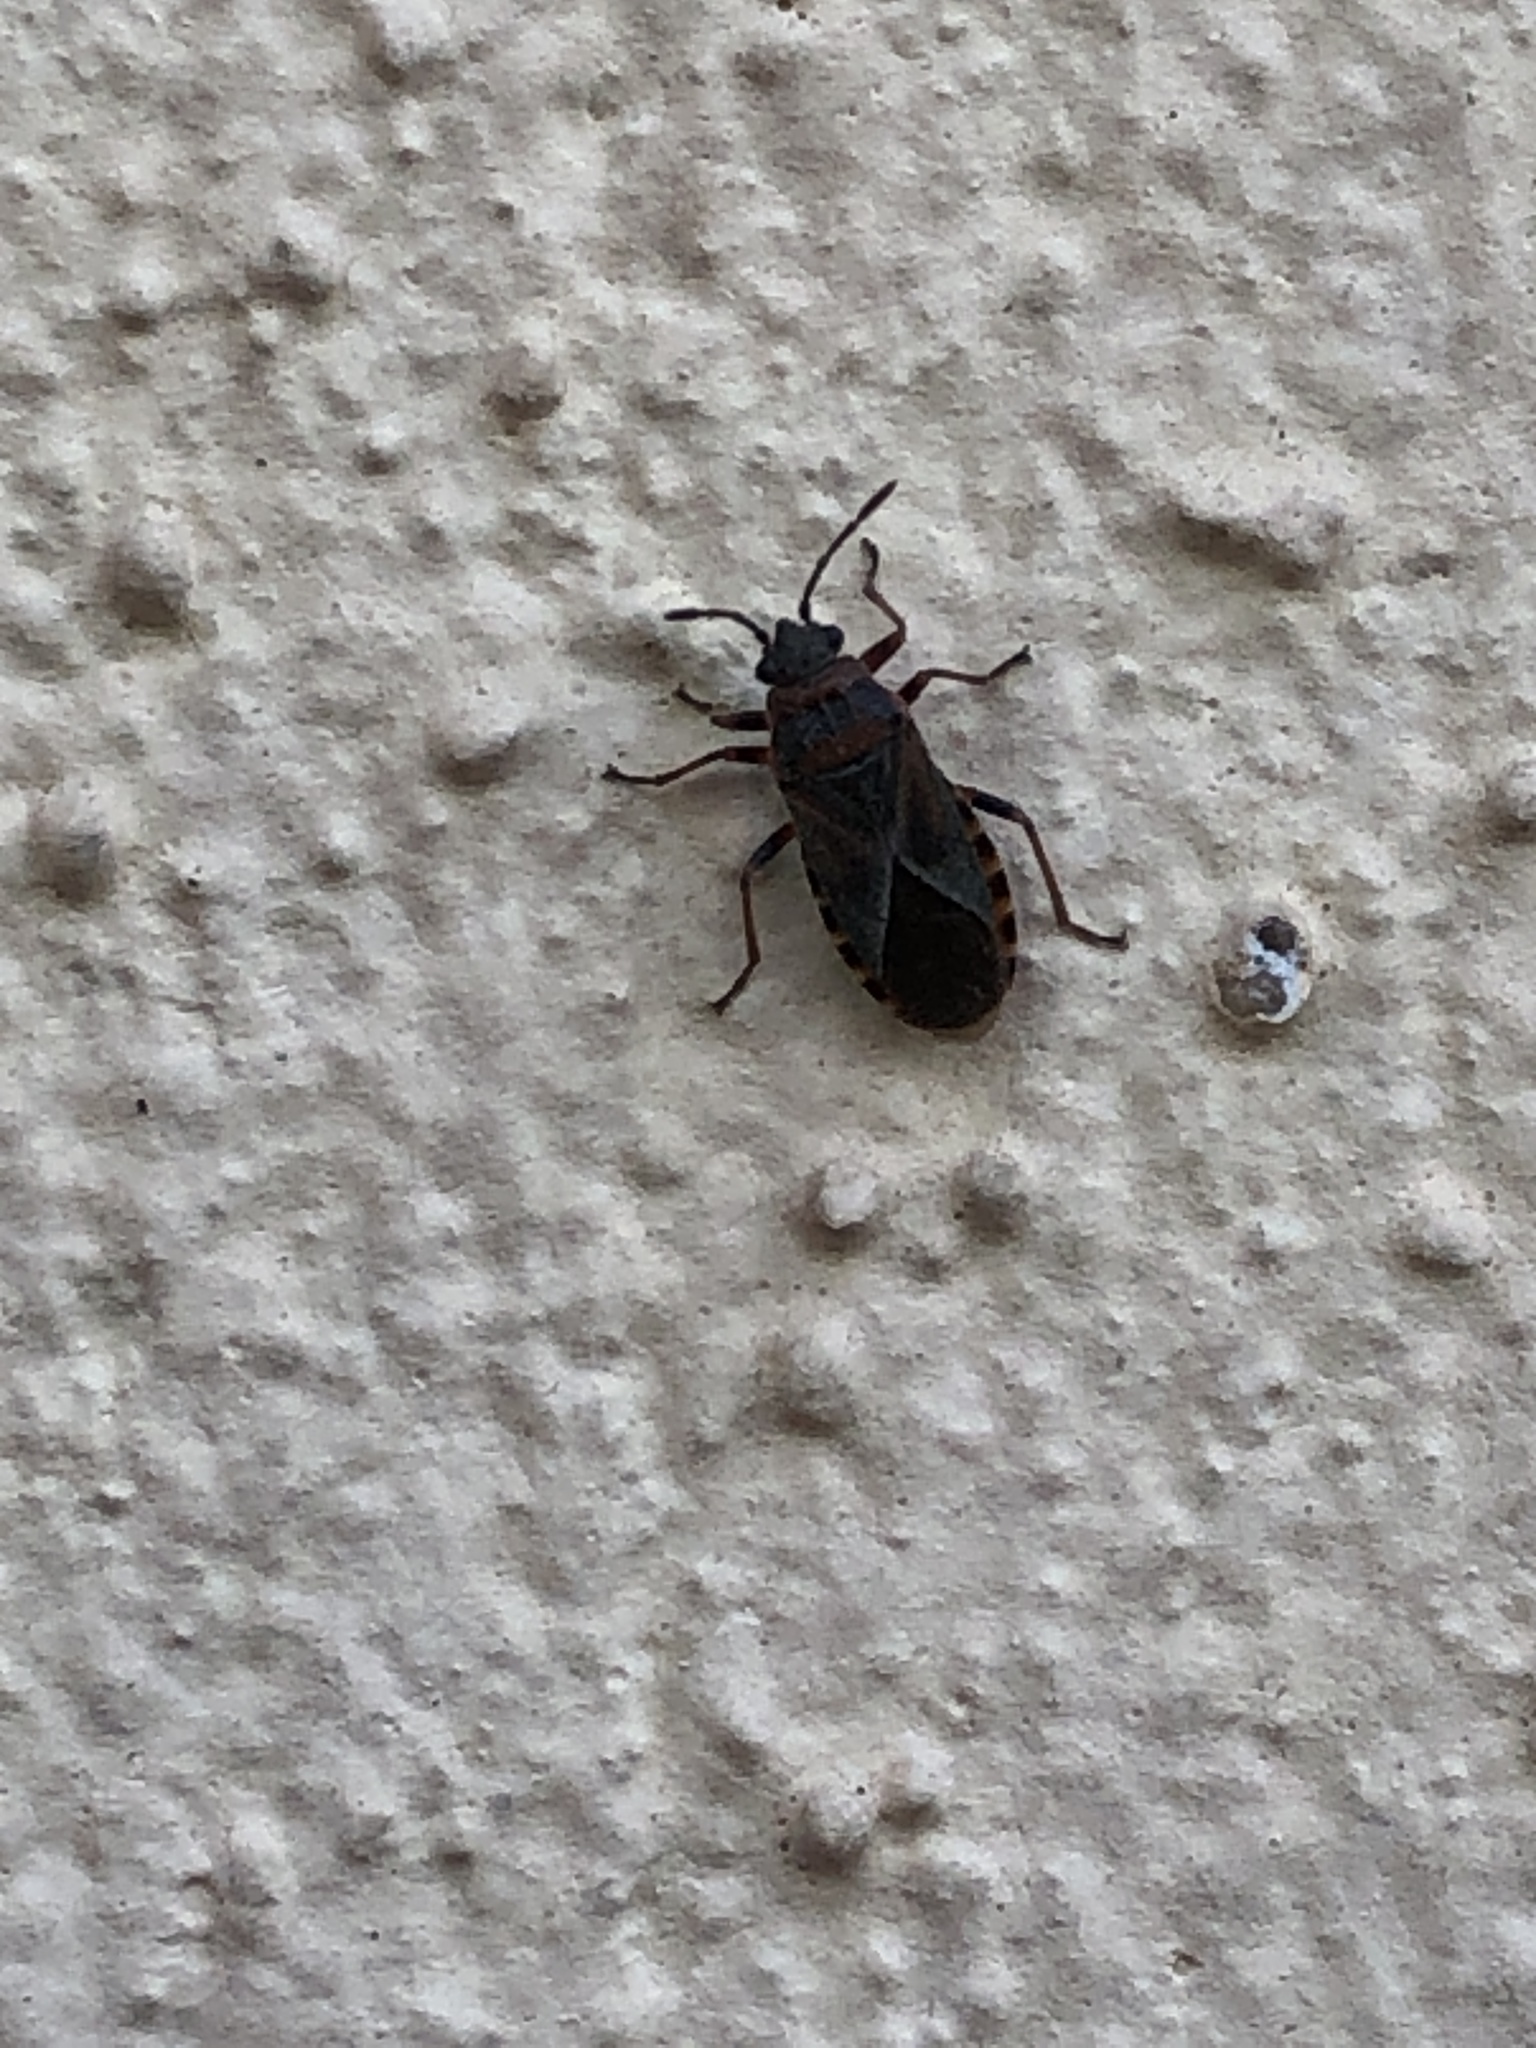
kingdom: Animalia
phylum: Arthropoda
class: Insecta
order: Hemiptera
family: Lygaeidae
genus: Arocatus
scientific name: Arocatus melanocephalus
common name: Lygaeid bug
